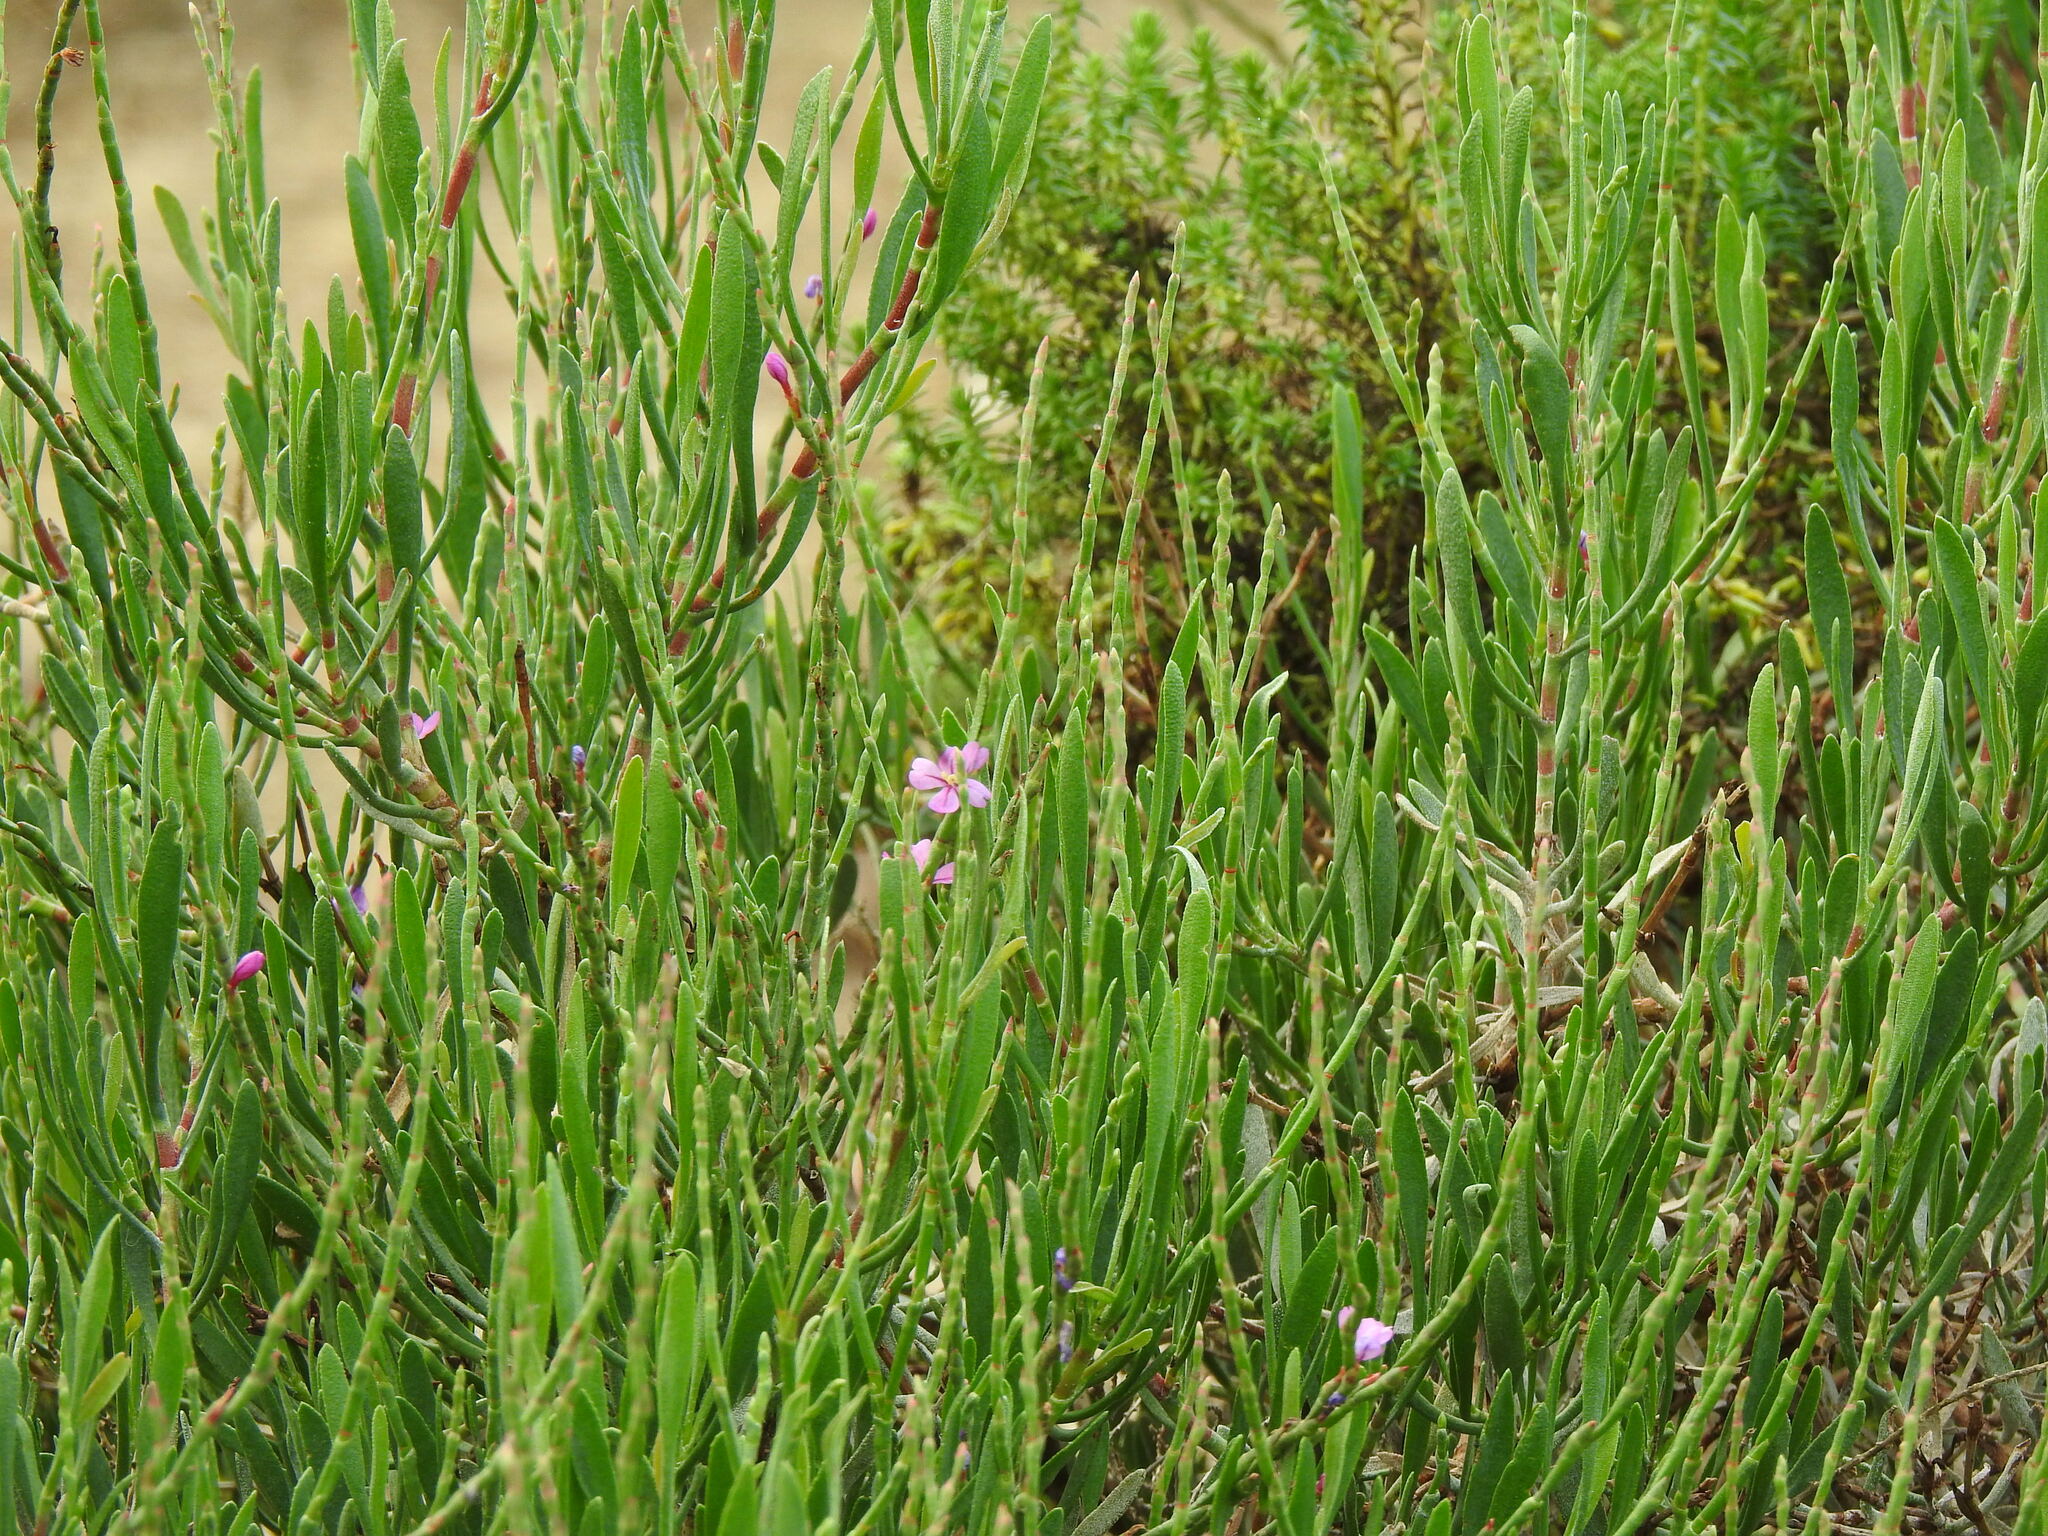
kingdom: Plantae
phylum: Tracheophyta
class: Magnoliopsida
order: Caryophyllales
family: Plumbaginaceae
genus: Limoniastrum
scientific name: Limoniastrum monopetalum
